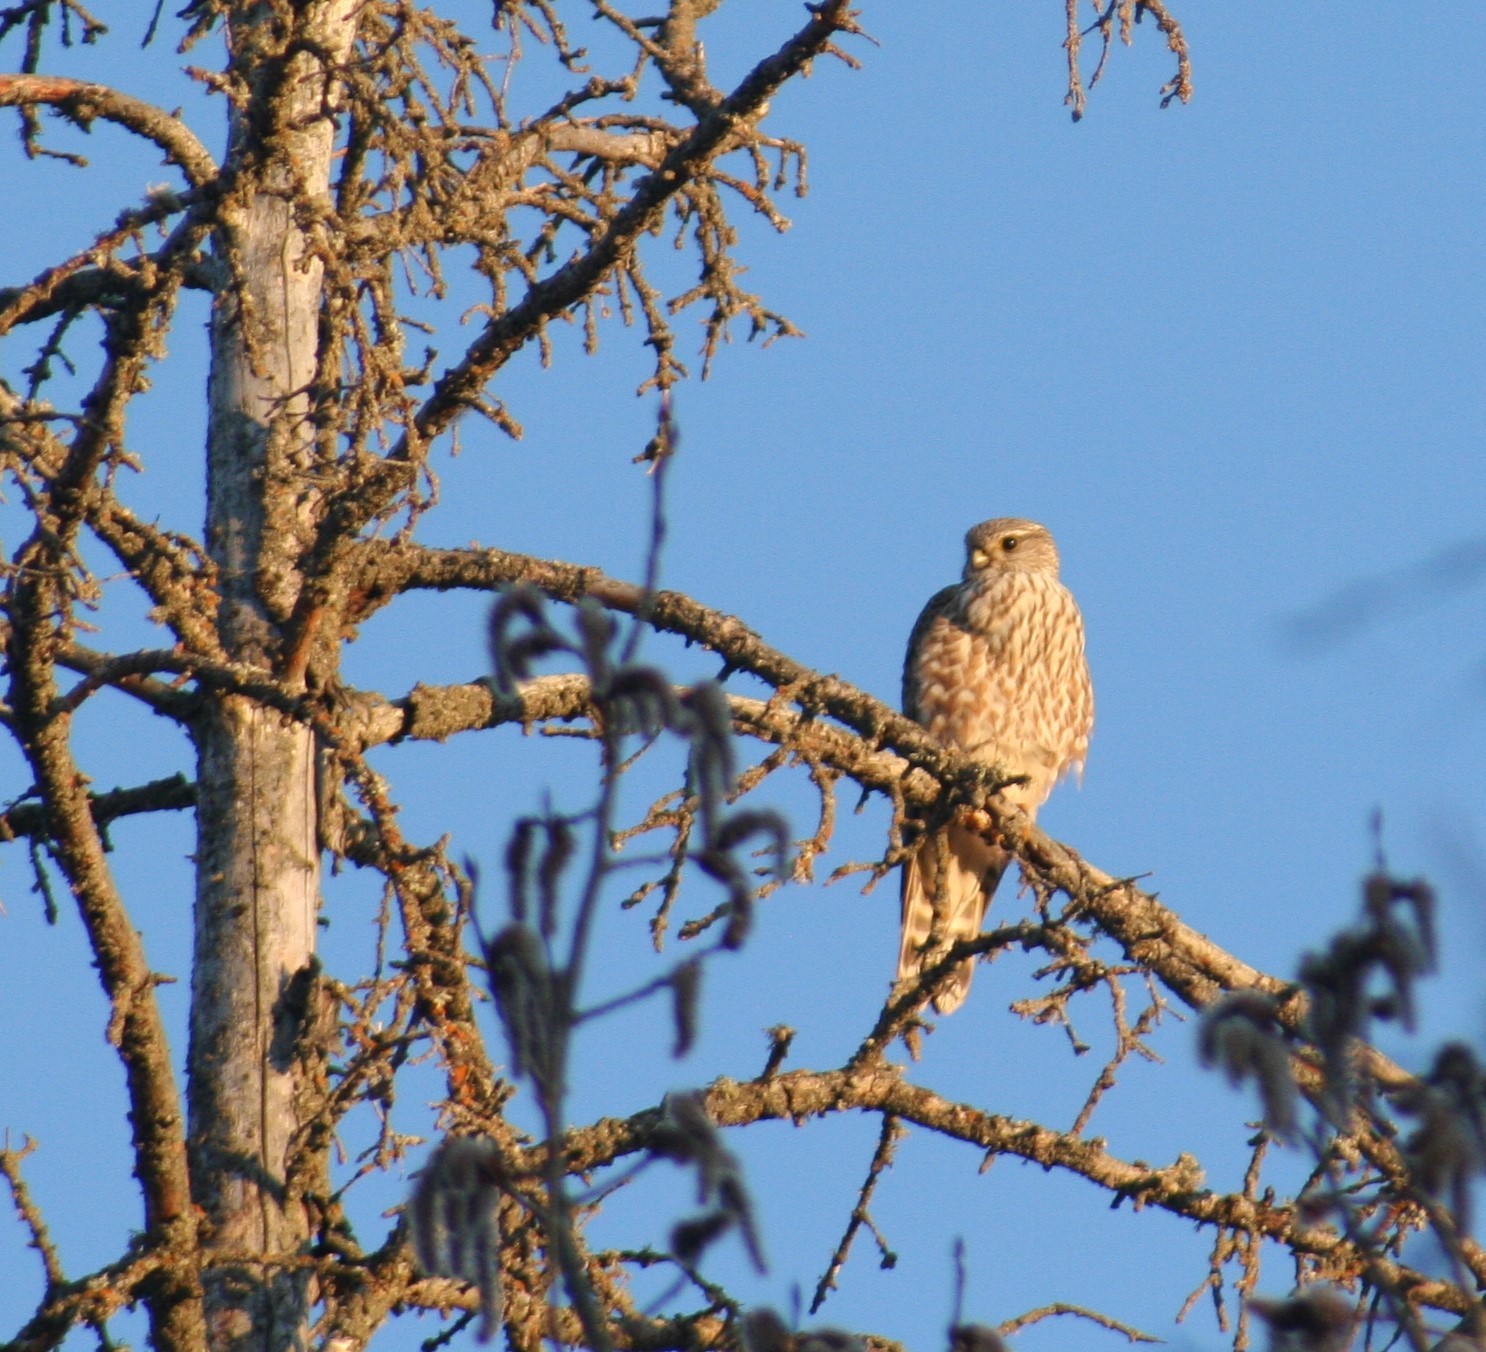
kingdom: Animalia
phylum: Chordata
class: Aves
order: Falconiformes
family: Falconidae
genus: Falco
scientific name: Falco columbarius
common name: Merlin
